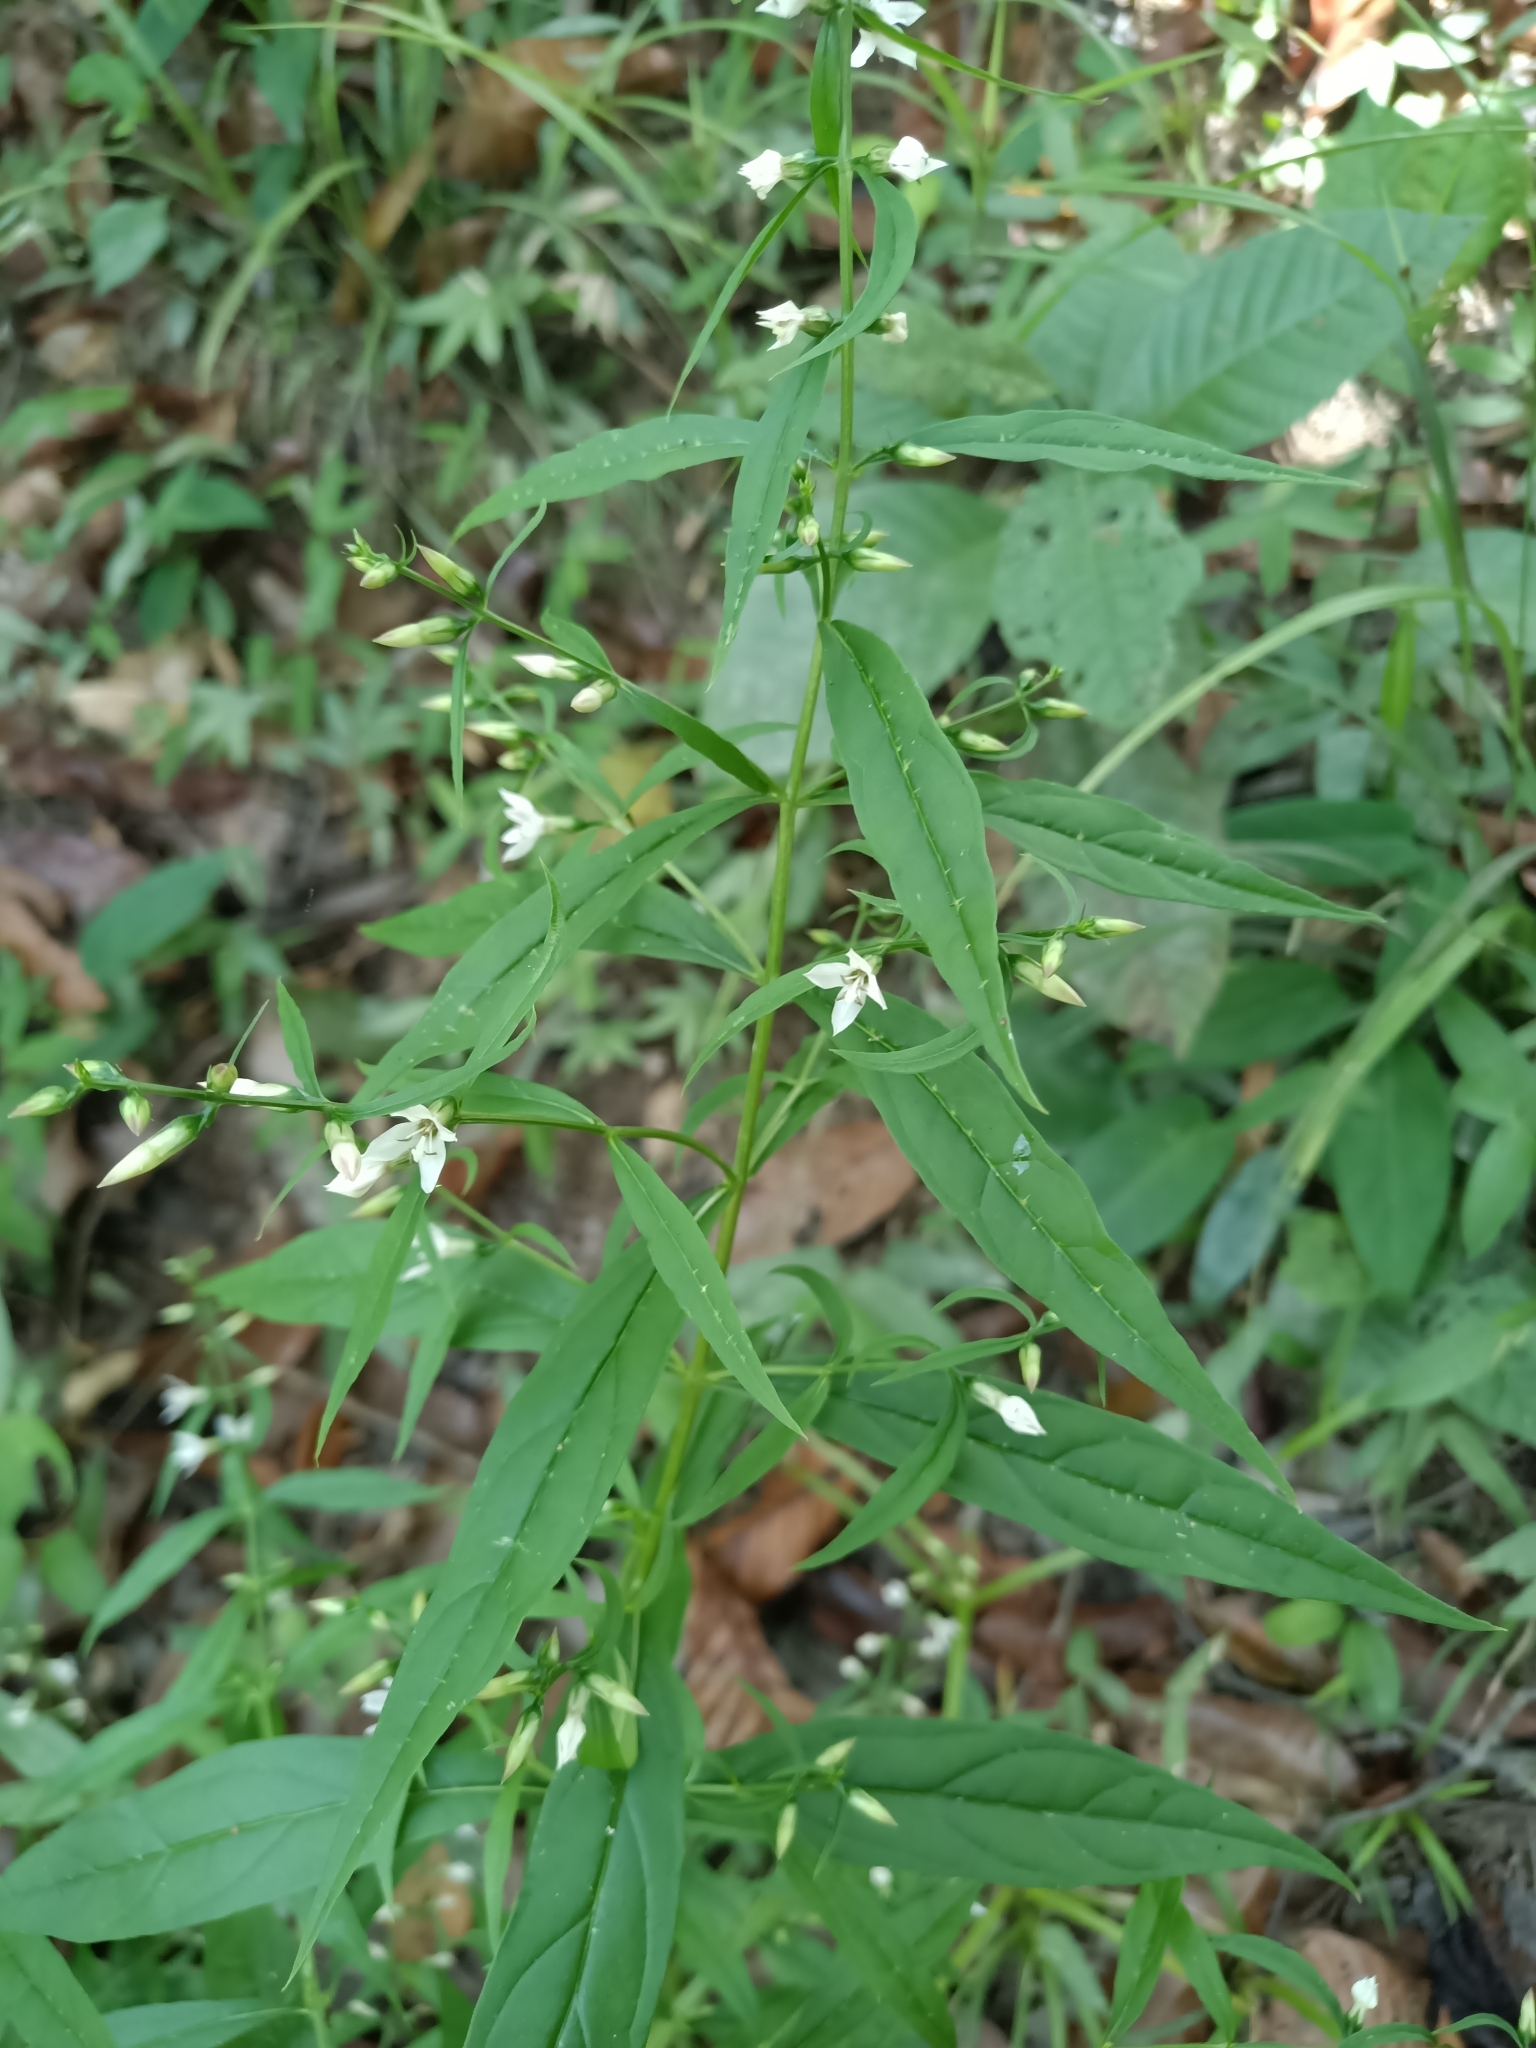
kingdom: Plantae
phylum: Tracheophyta
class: Magnoliopsida
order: Gentianales
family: Gentianaceae
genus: Coutoubea
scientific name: Coutoubea ramosa
